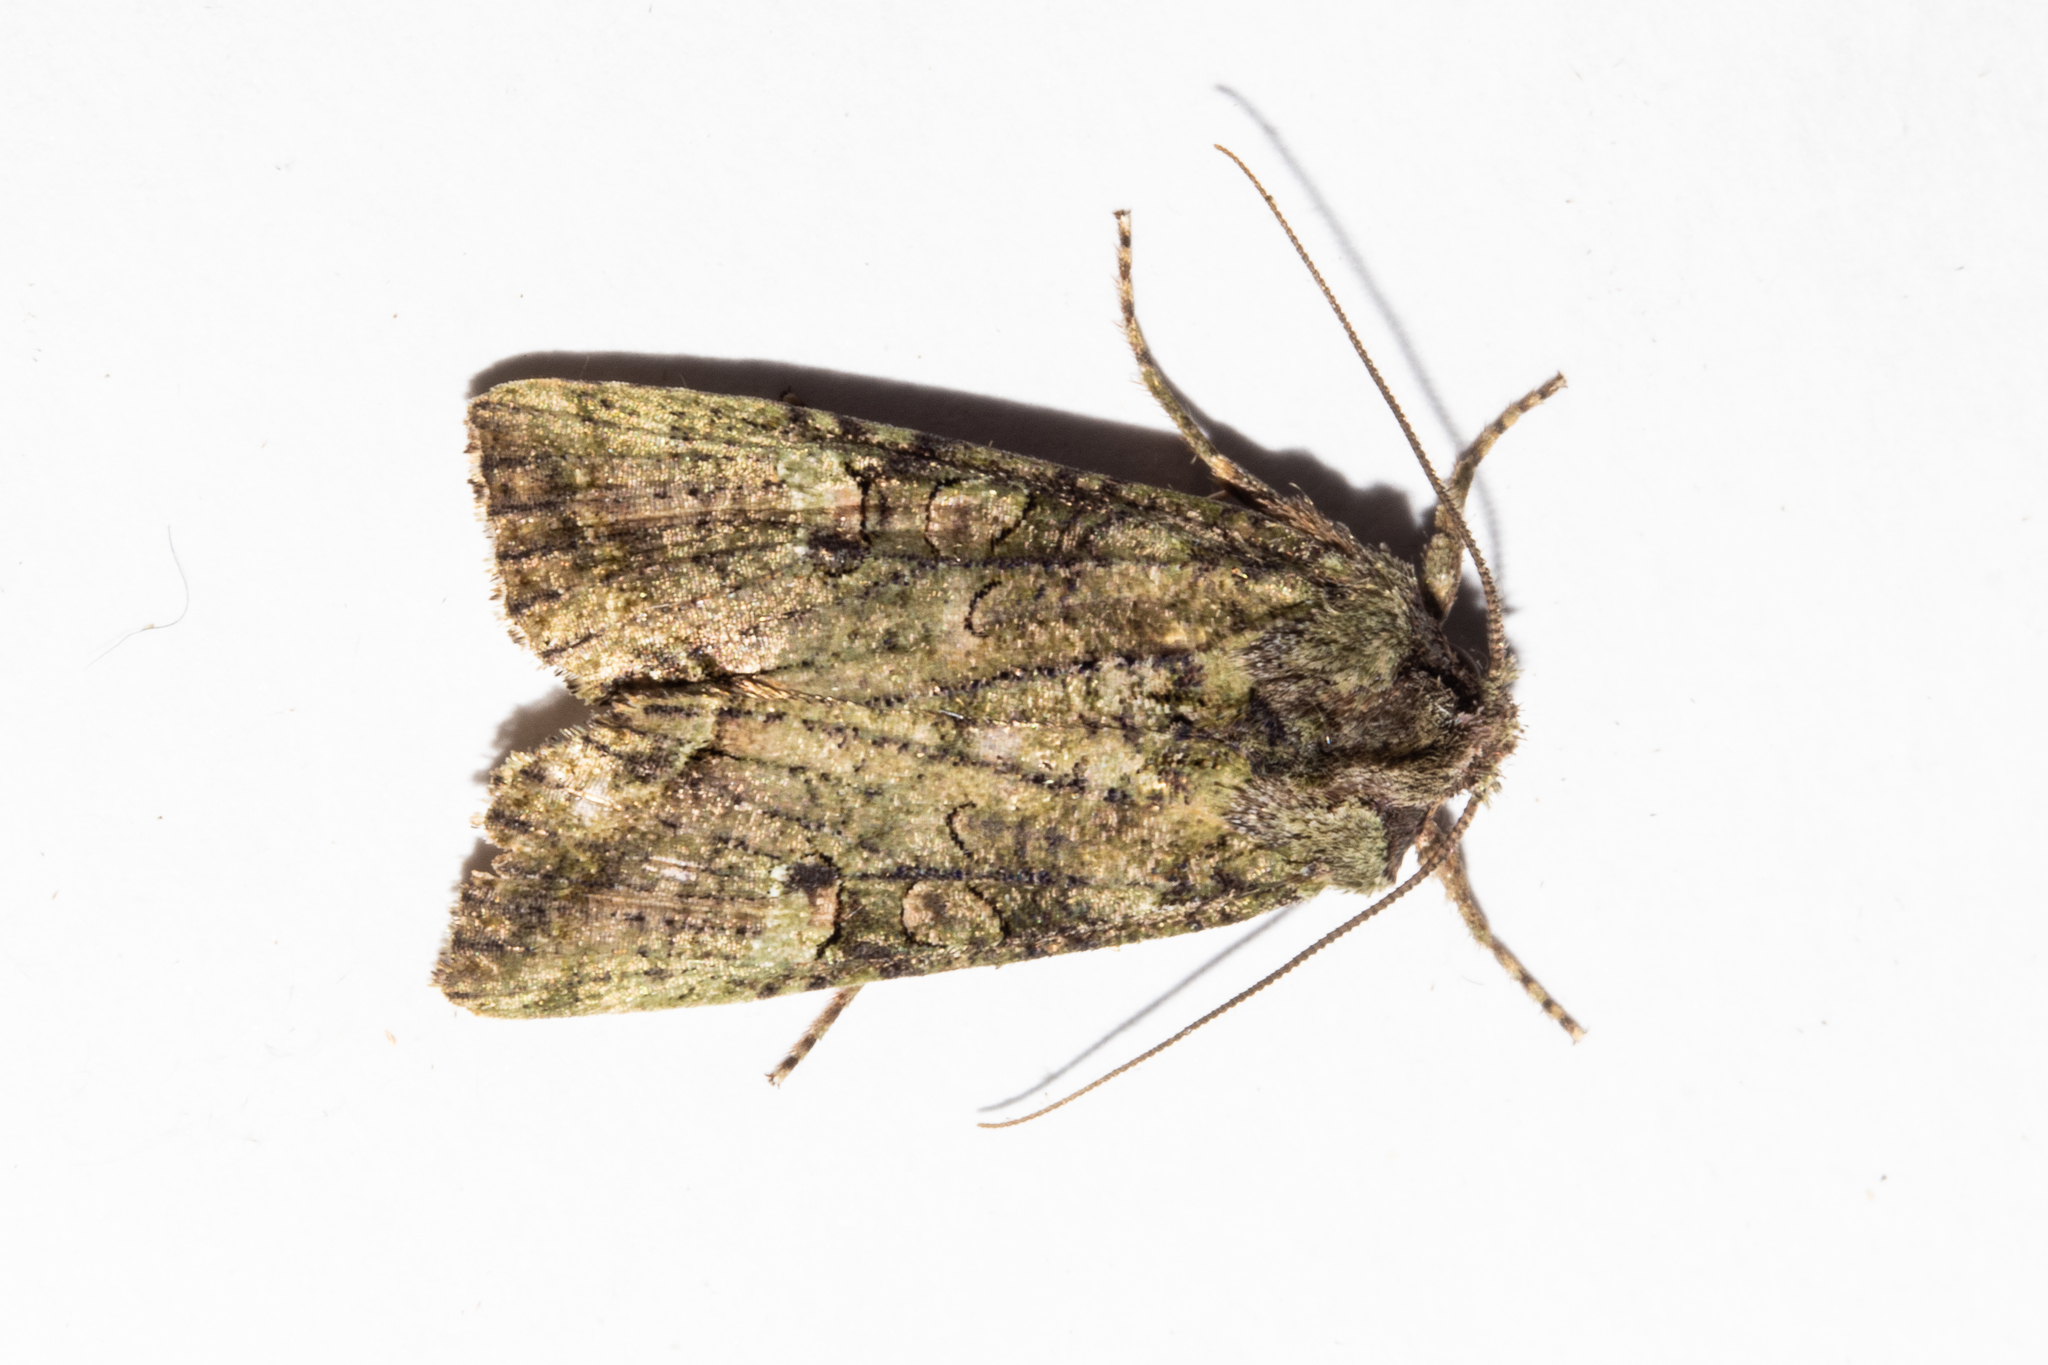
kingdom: Animalia
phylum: Arthropoda
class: Insecta
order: Lepidoptera
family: Noctuidae
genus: Meterana
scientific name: Meterana levis
